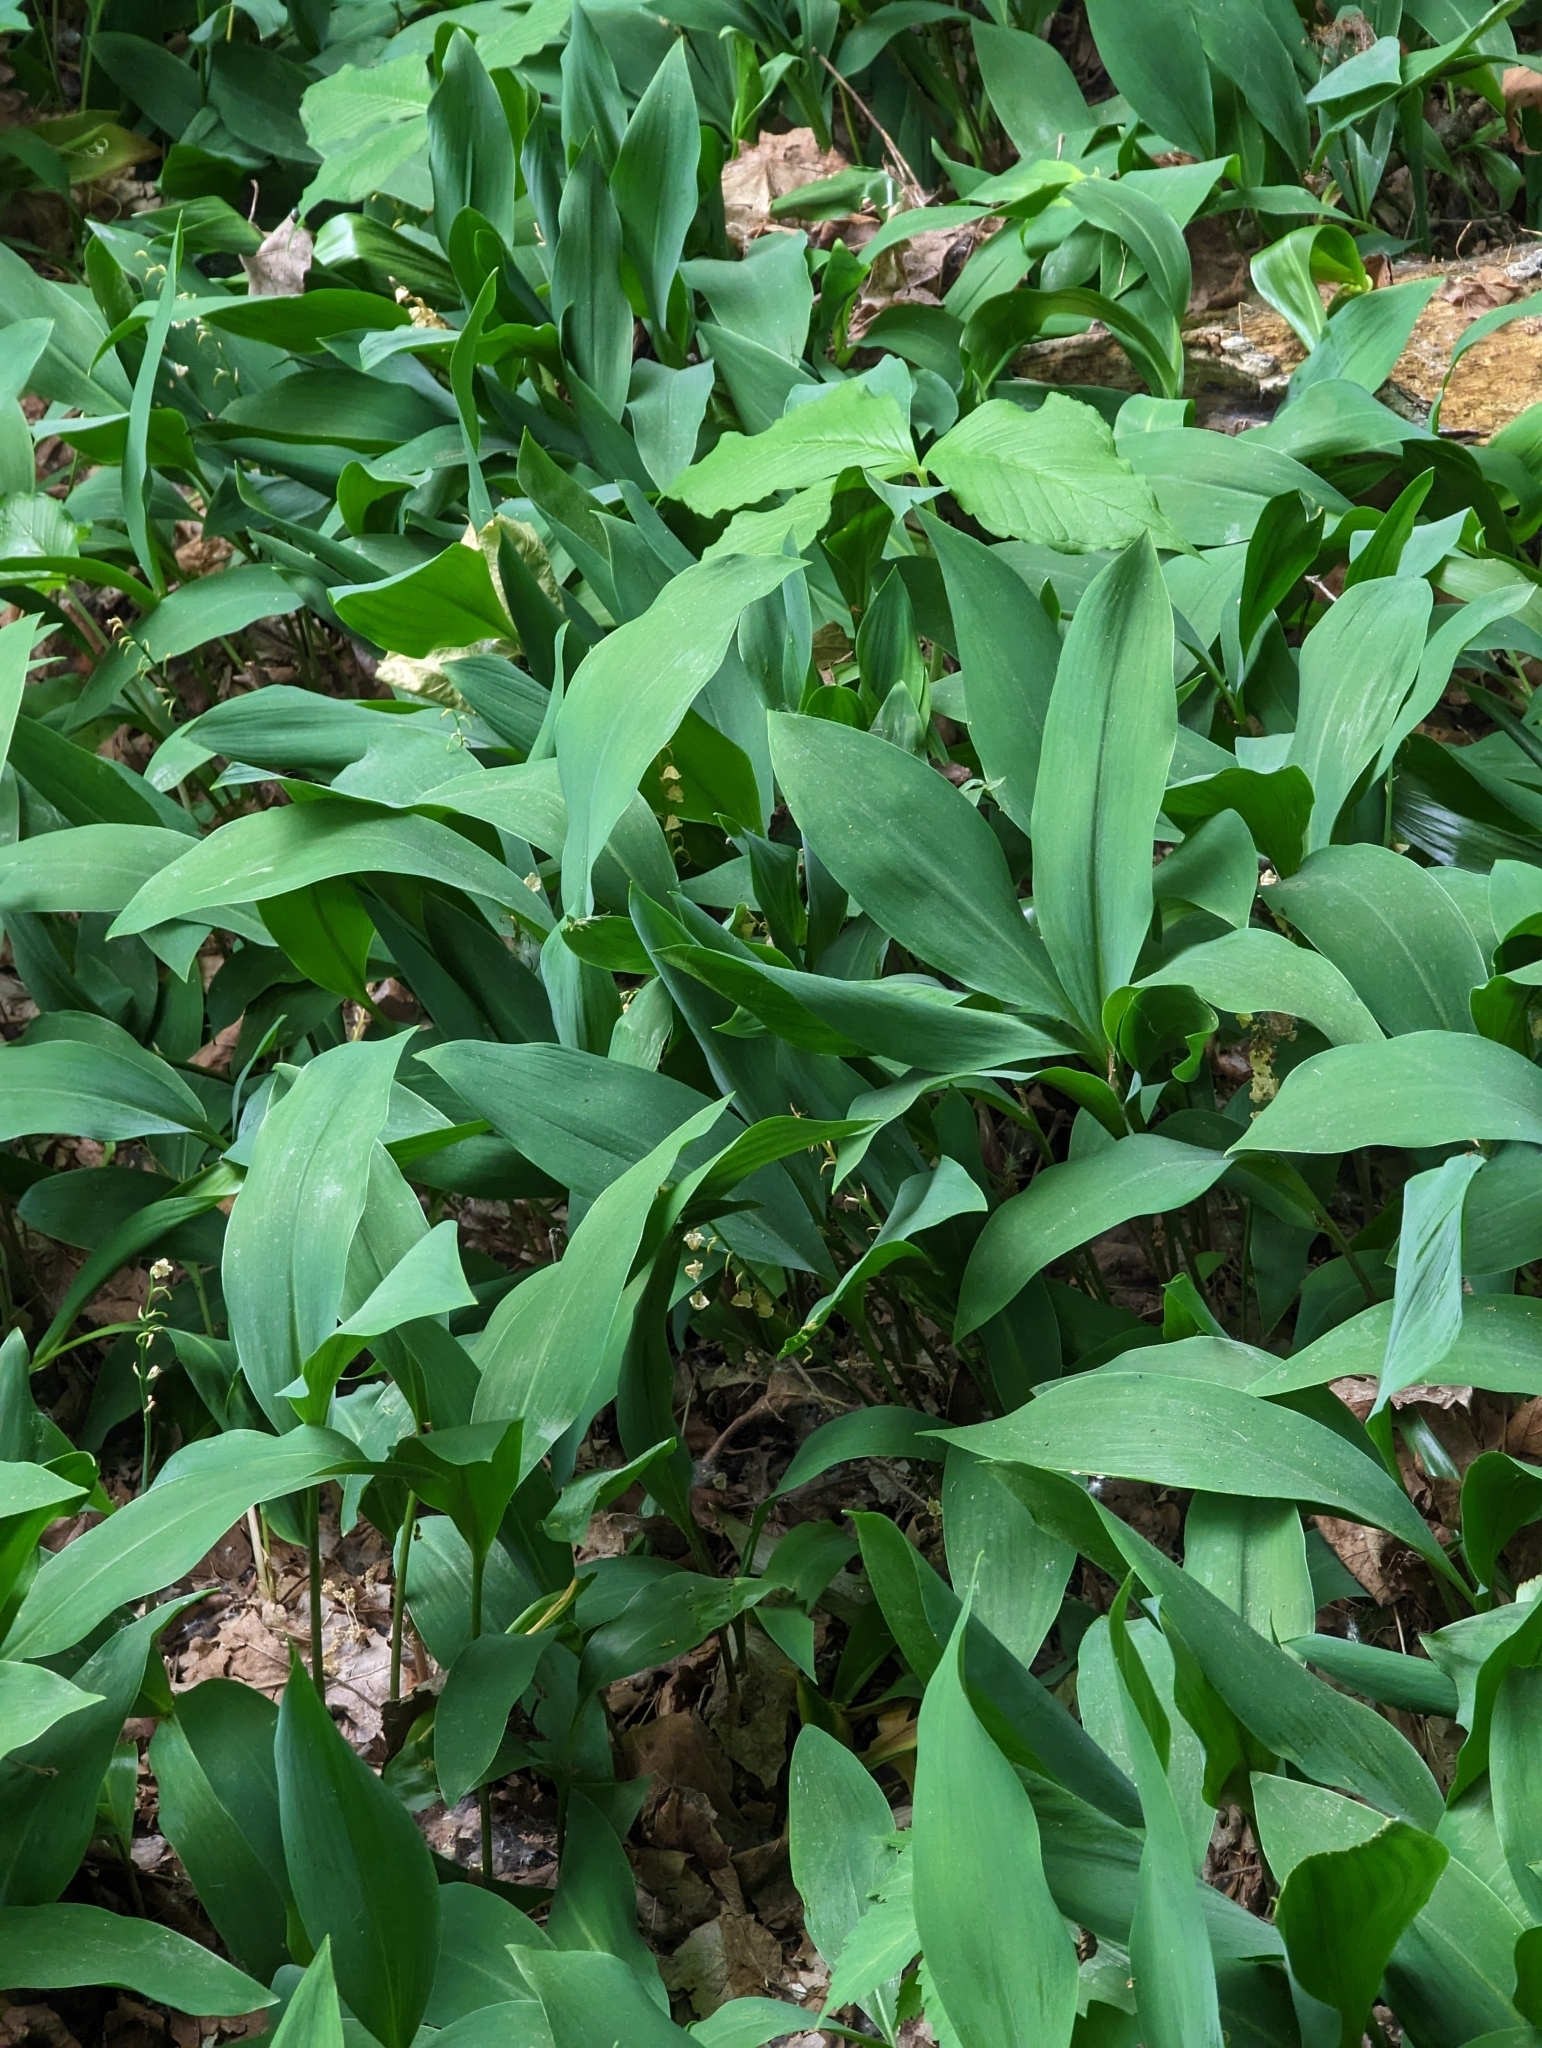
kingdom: Plantae
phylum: Tracheophyta
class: Liliopsida
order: Asparagales
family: Asparagaceae
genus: Convallaria
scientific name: Convallaria majalis
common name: Lily-of-the-valley
